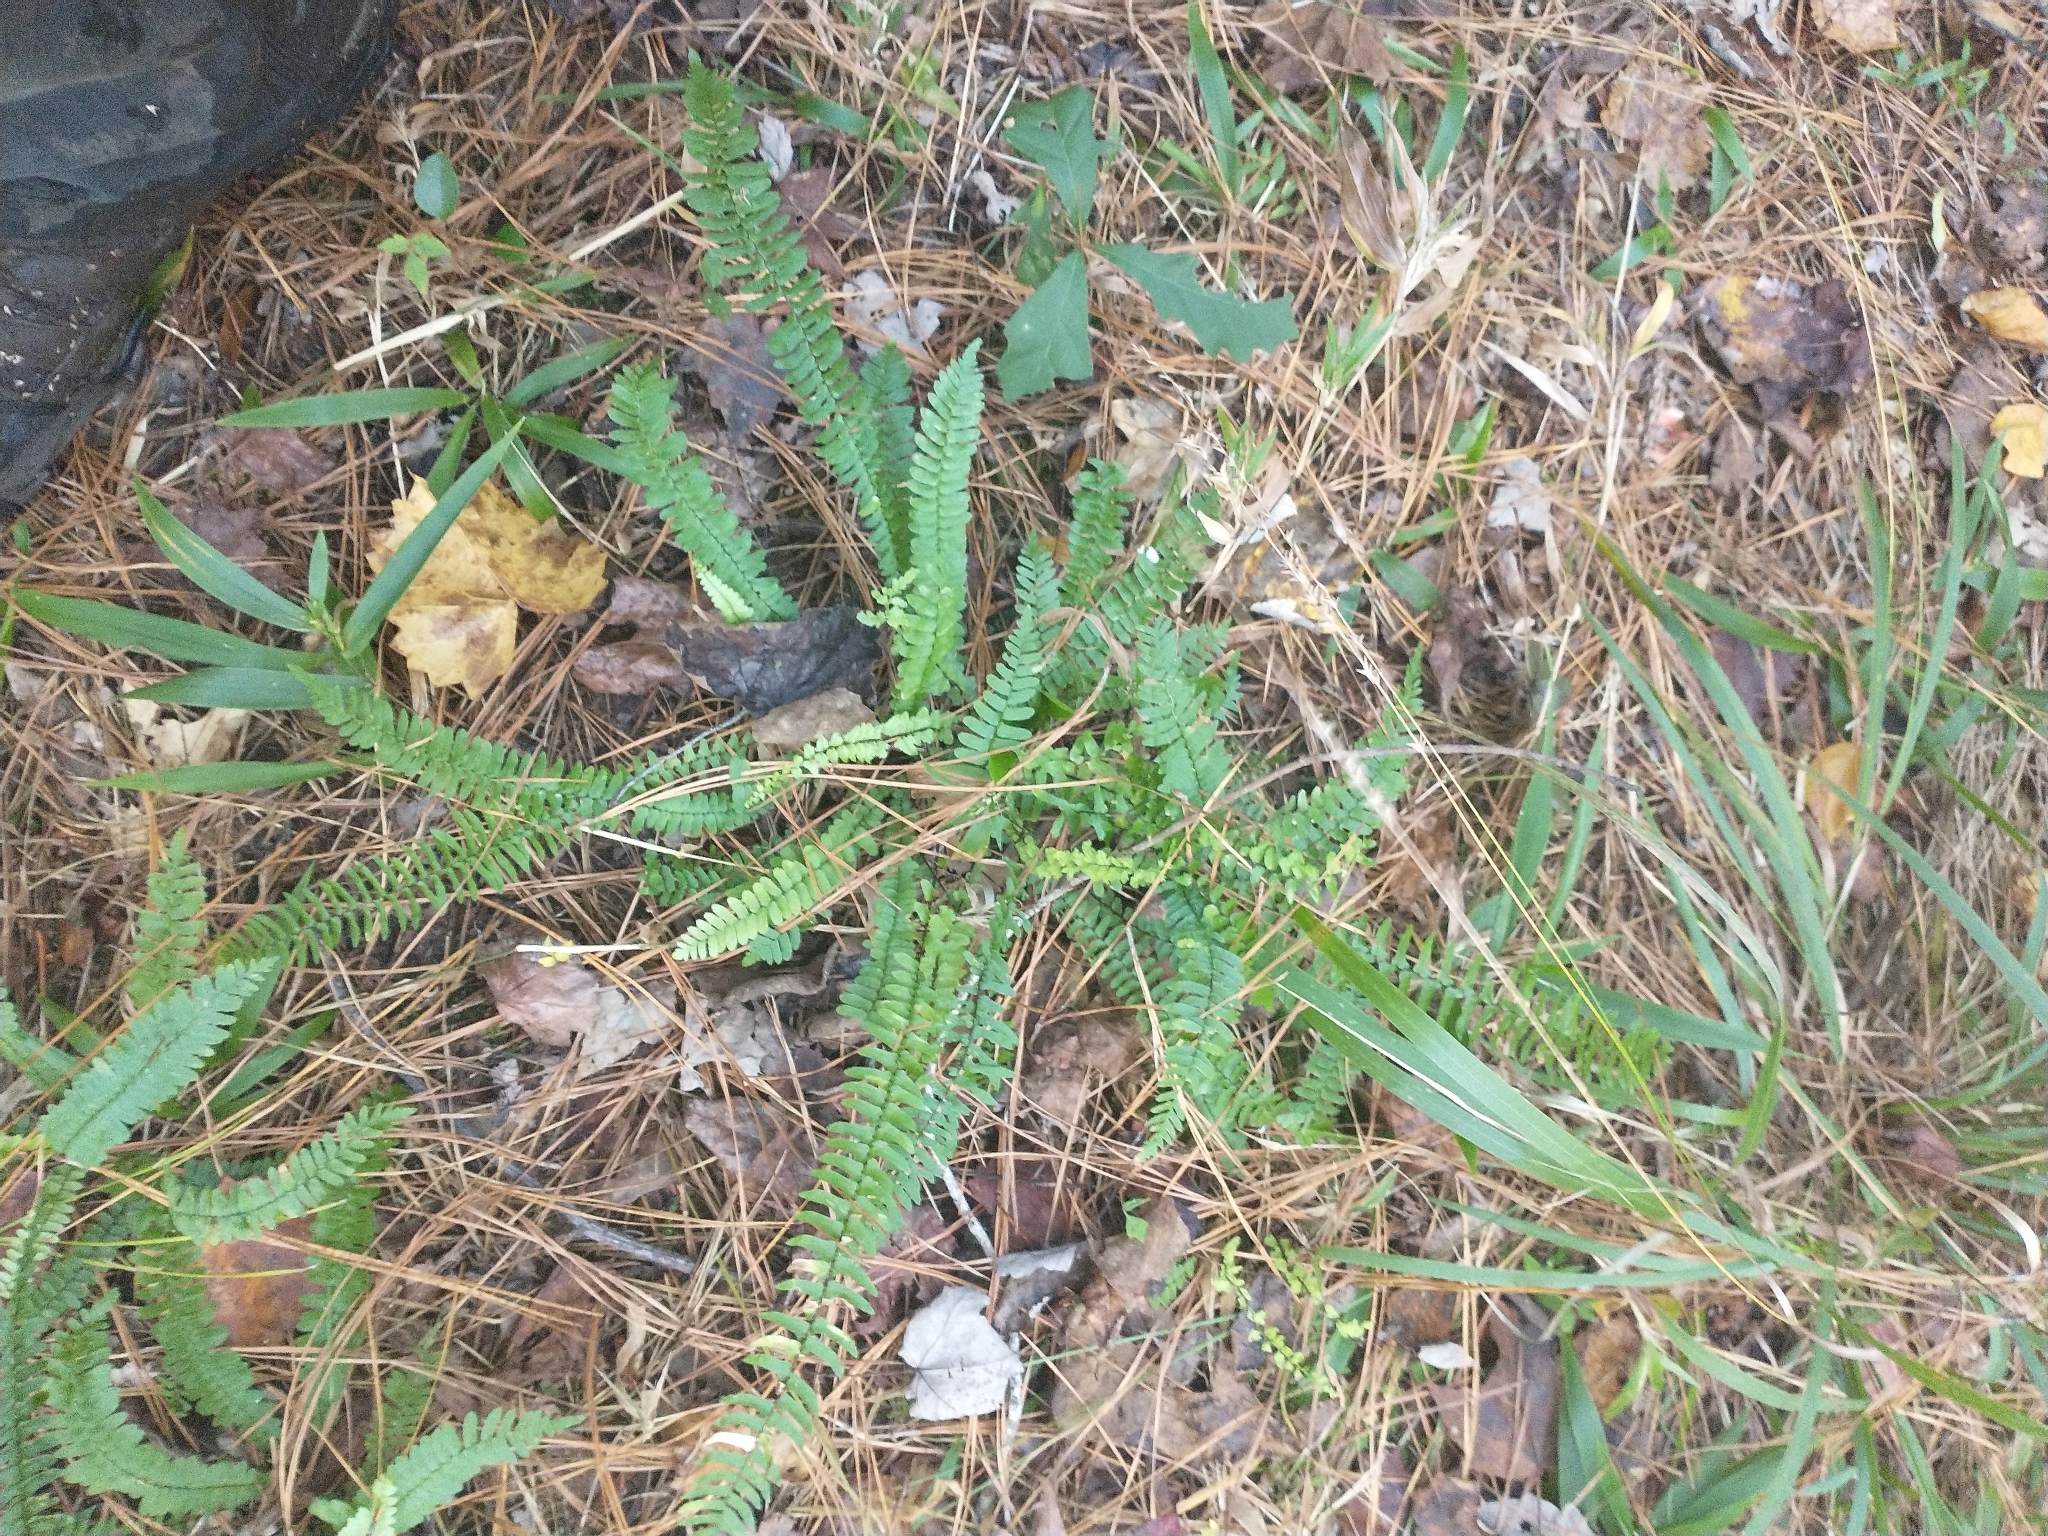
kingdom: Plantae
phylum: Tracheophyta
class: Polypodiopsida
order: Polypodiales
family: Aspleniaceae
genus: Asplenium
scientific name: Asplenium platyneuron
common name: Ebony spleenwort
